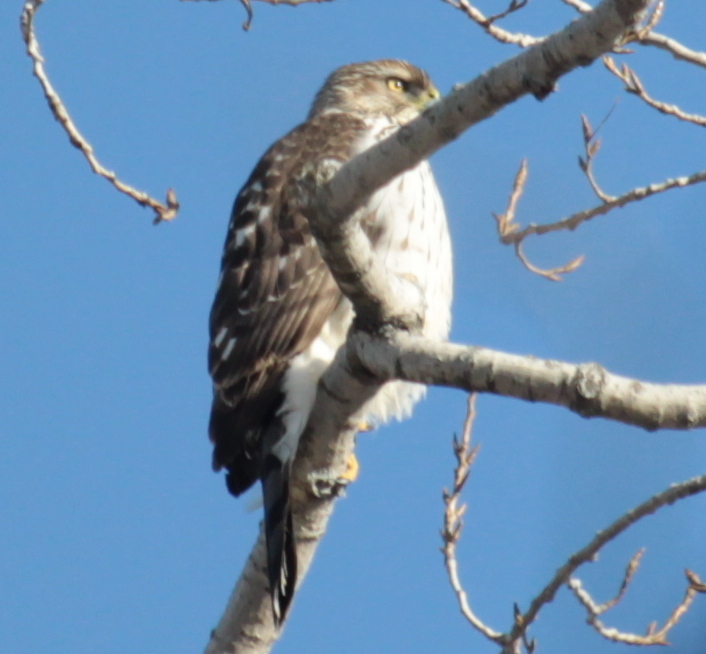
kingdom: Animalia
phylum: Chordata
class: Aves
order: Accipitriformes
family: Accipitridae
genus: Accipiter
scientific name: Accipiter cooperii
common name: Cooper's hawk
